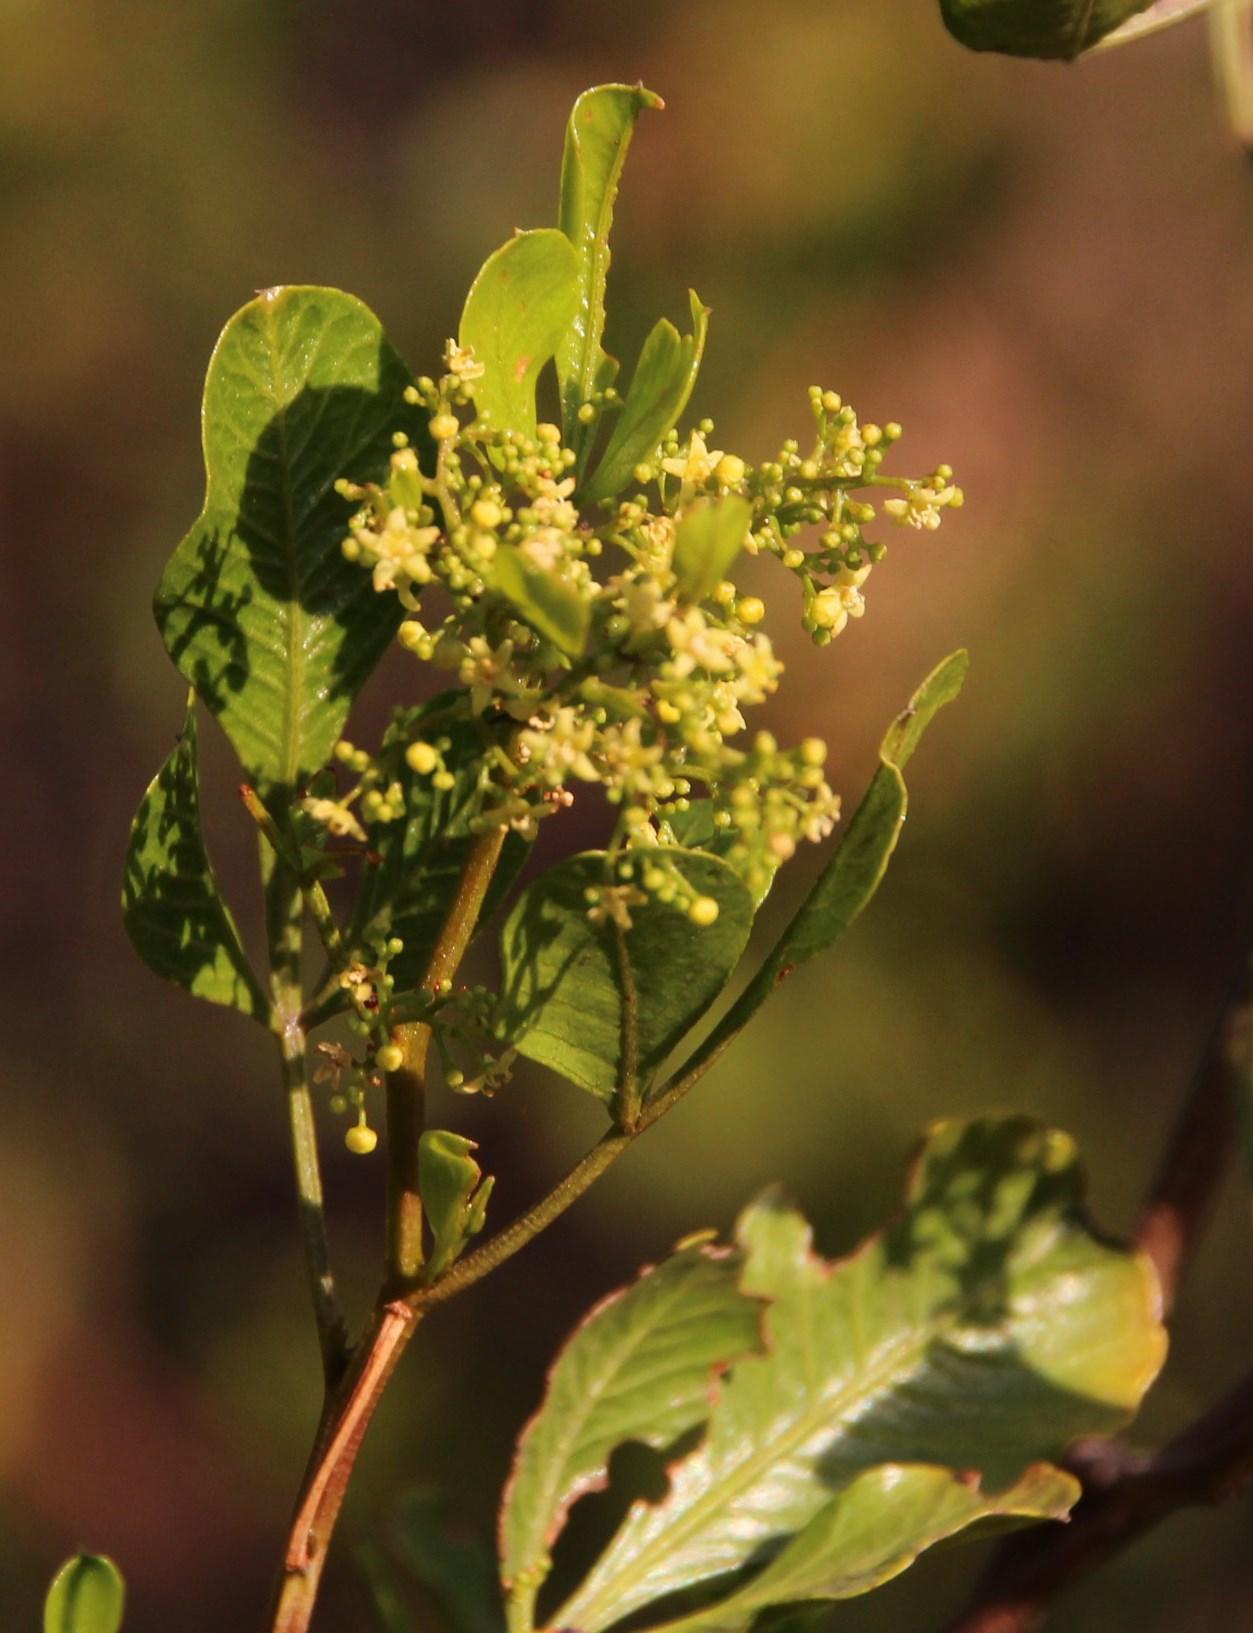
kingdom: Plantae
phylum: Tracheophyta
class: Magnoliopsida
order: Sapindales
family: Anacardiaceae
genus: Searsia
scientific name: Searsia undulata
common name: Namaqua kunibush
